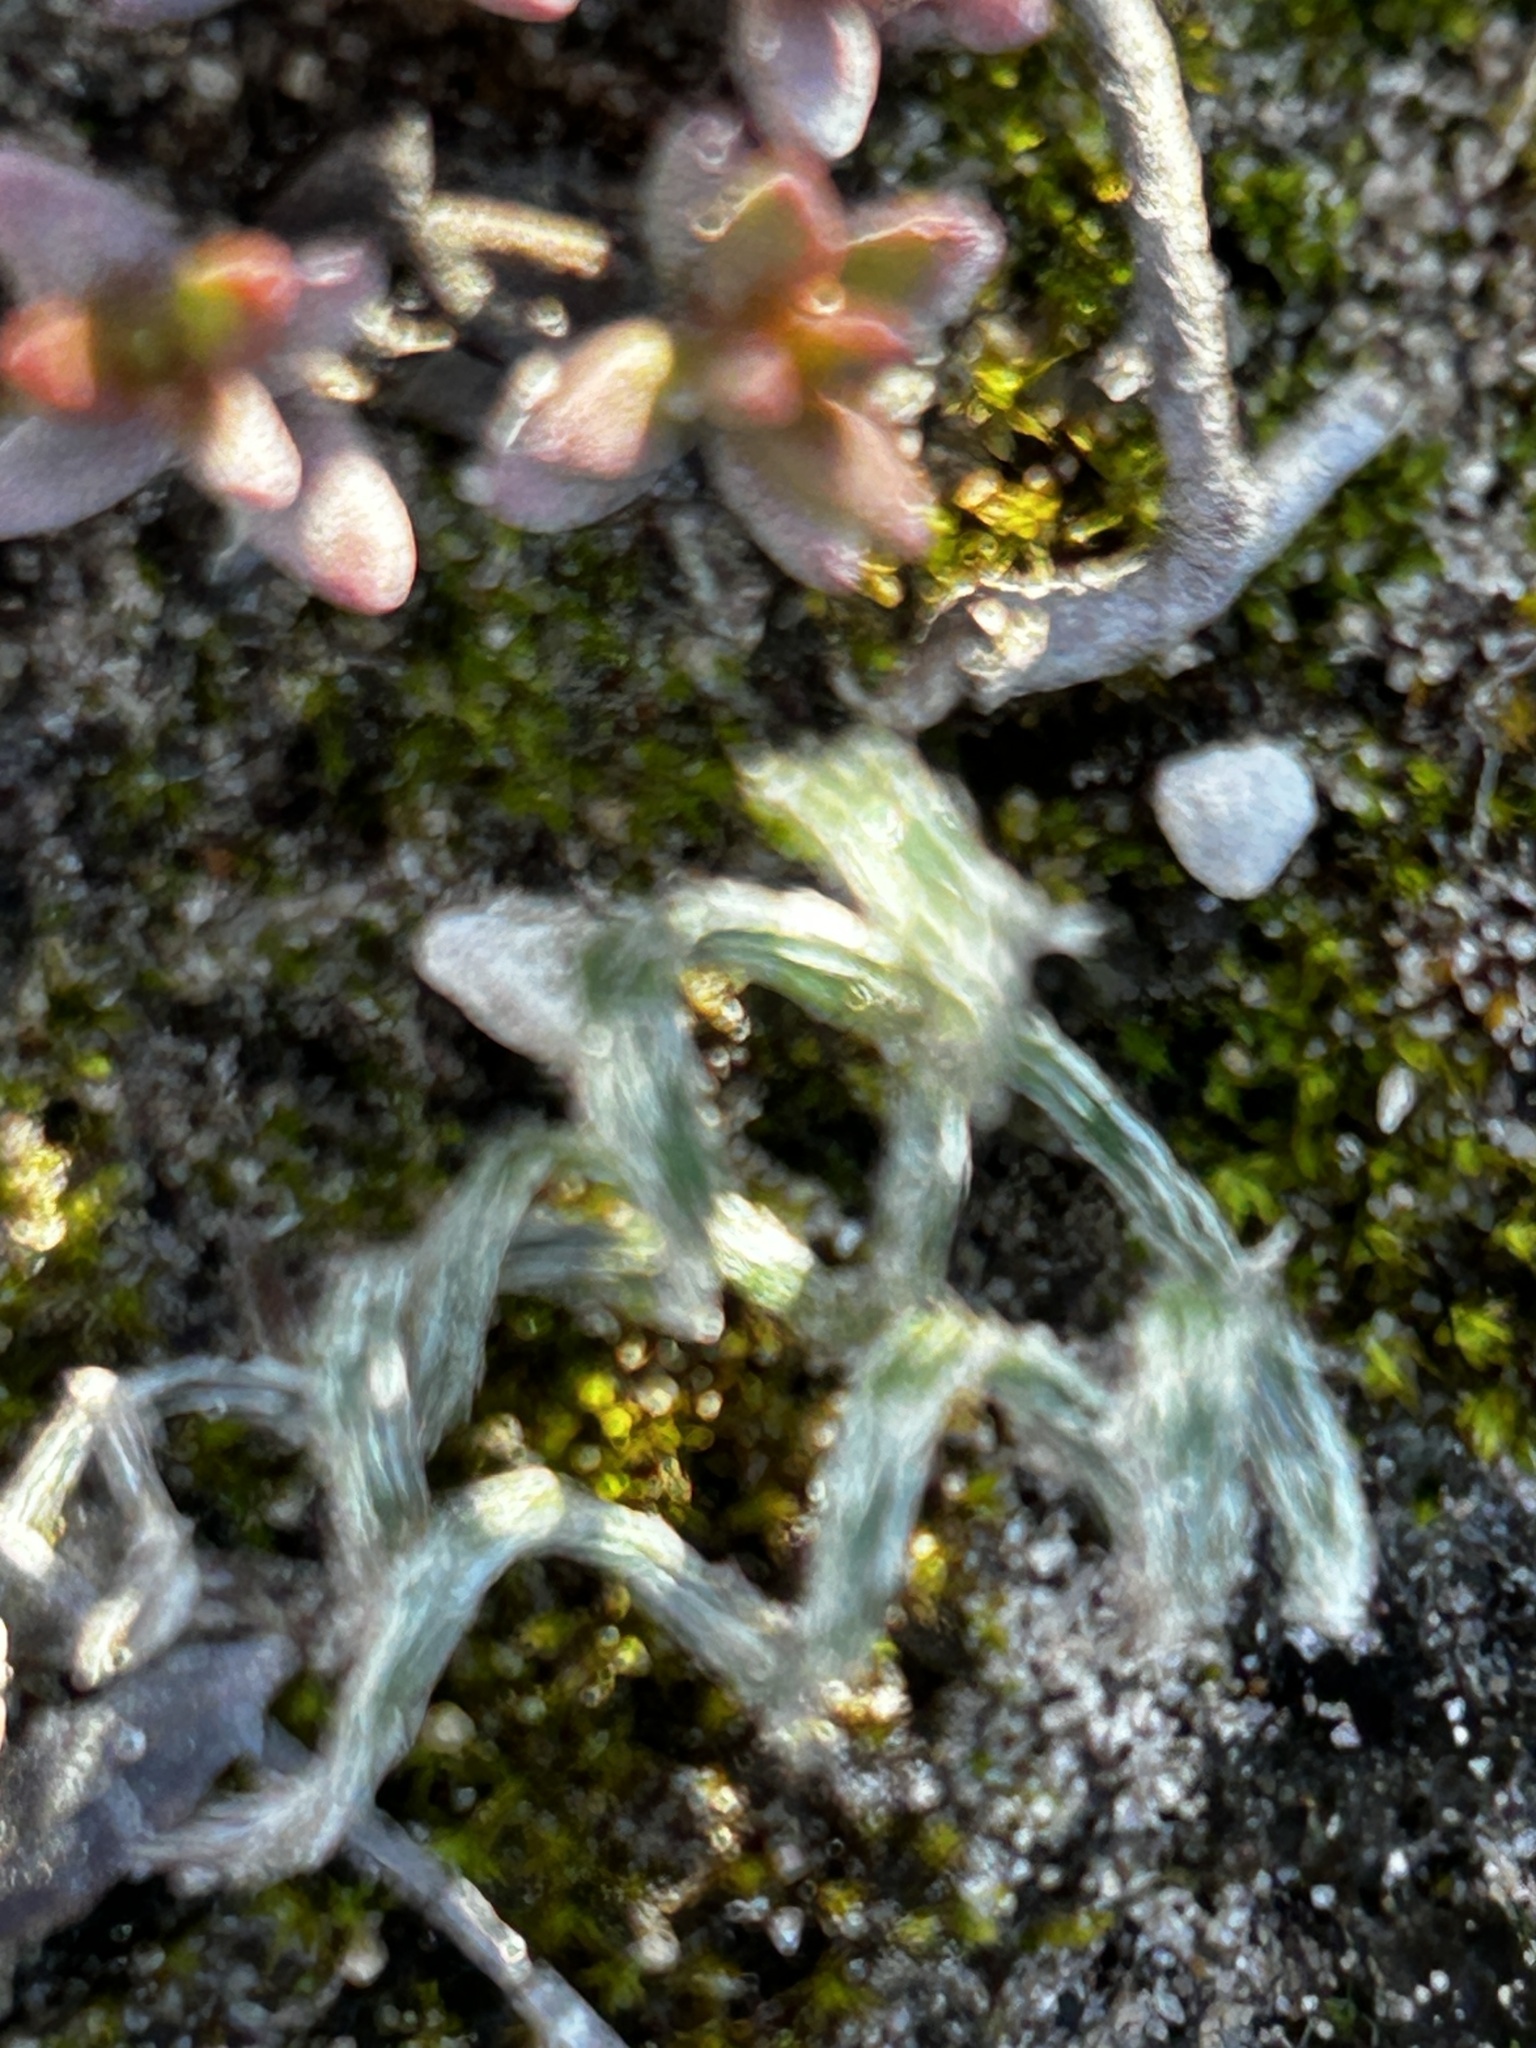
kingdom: Plantae
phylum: Tracheophyta
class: Liliopsida
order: Asparagales
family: Amaryllidaceae
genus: Gethyllis
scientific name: Gethyllis villosa
